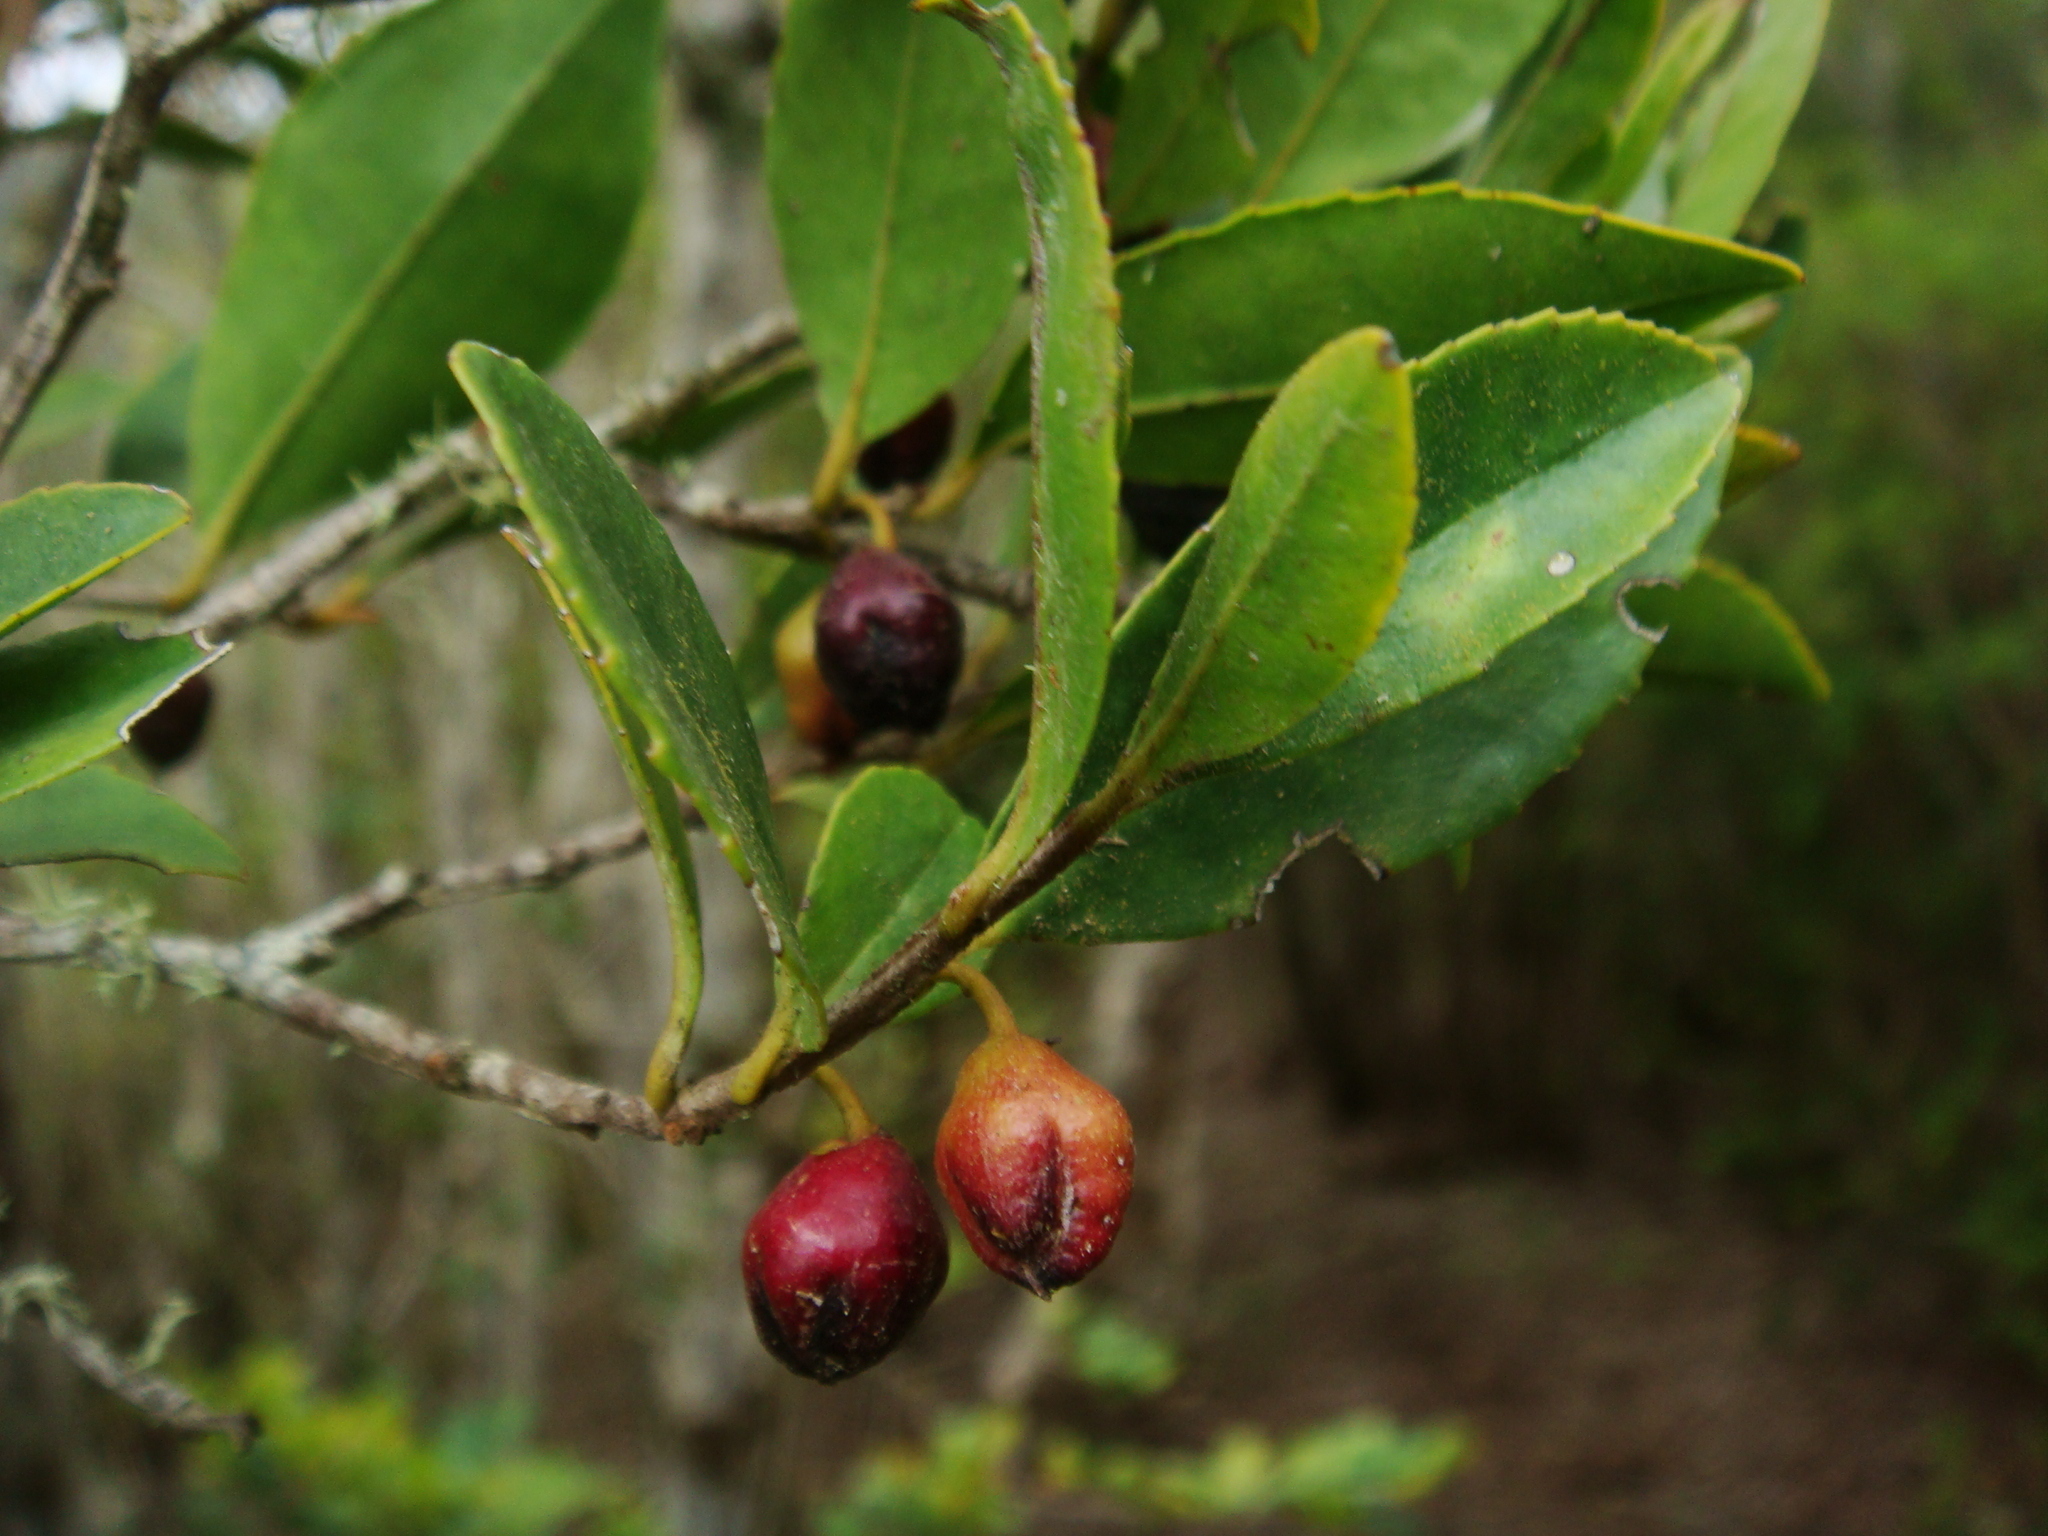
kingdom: Plantae
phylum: Tracheophyta
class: Magnoliopsida
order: Ericales
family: Pentaphylacaceae
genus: Visnea
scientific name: Visnea mocanera
